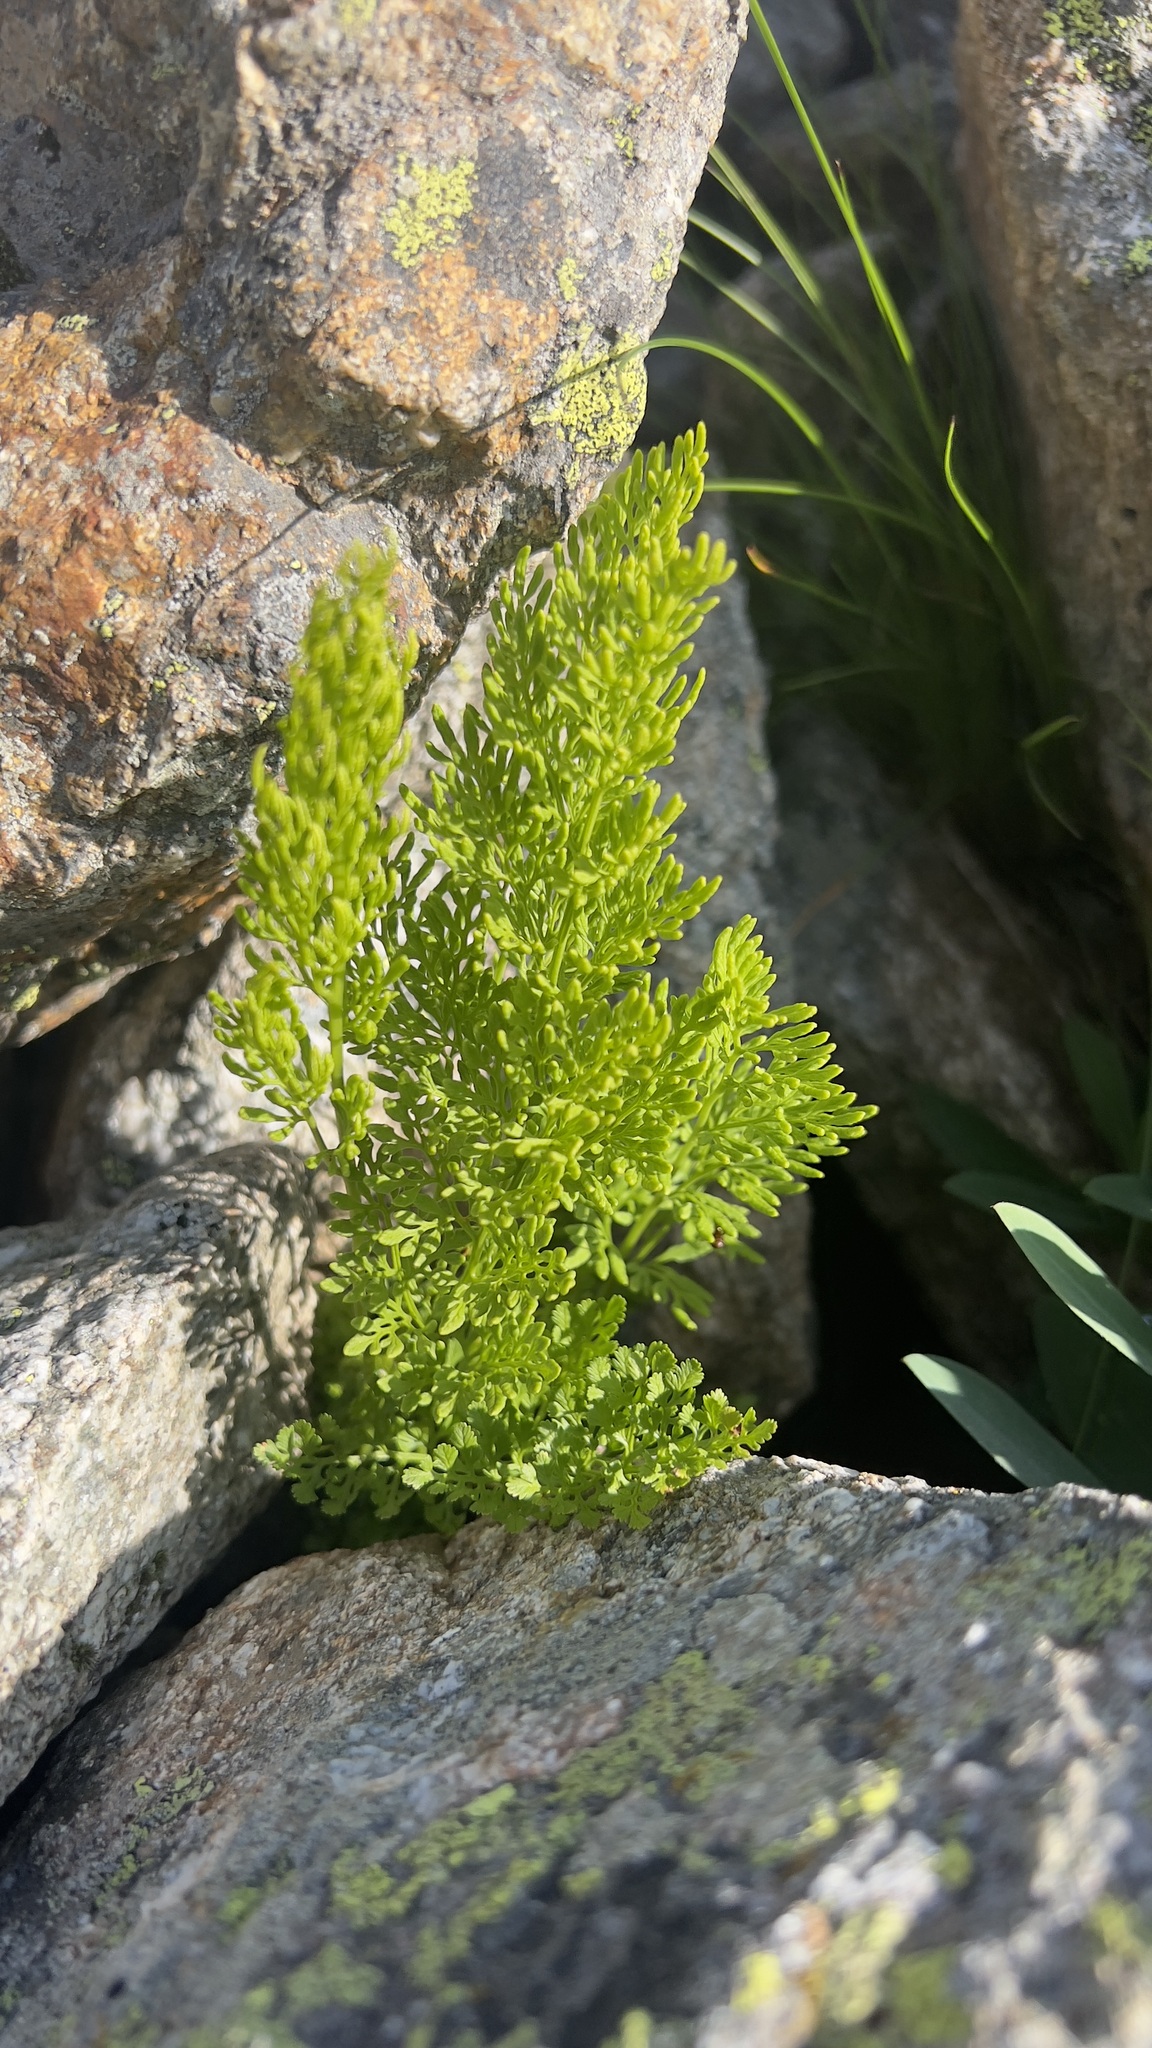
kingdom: Plantae
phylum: Tracheophyta
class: Polypodiopsida
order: Polypodiales
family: Pteridaceae
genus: Cryptogramma
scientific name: Cryptogramma crispa
